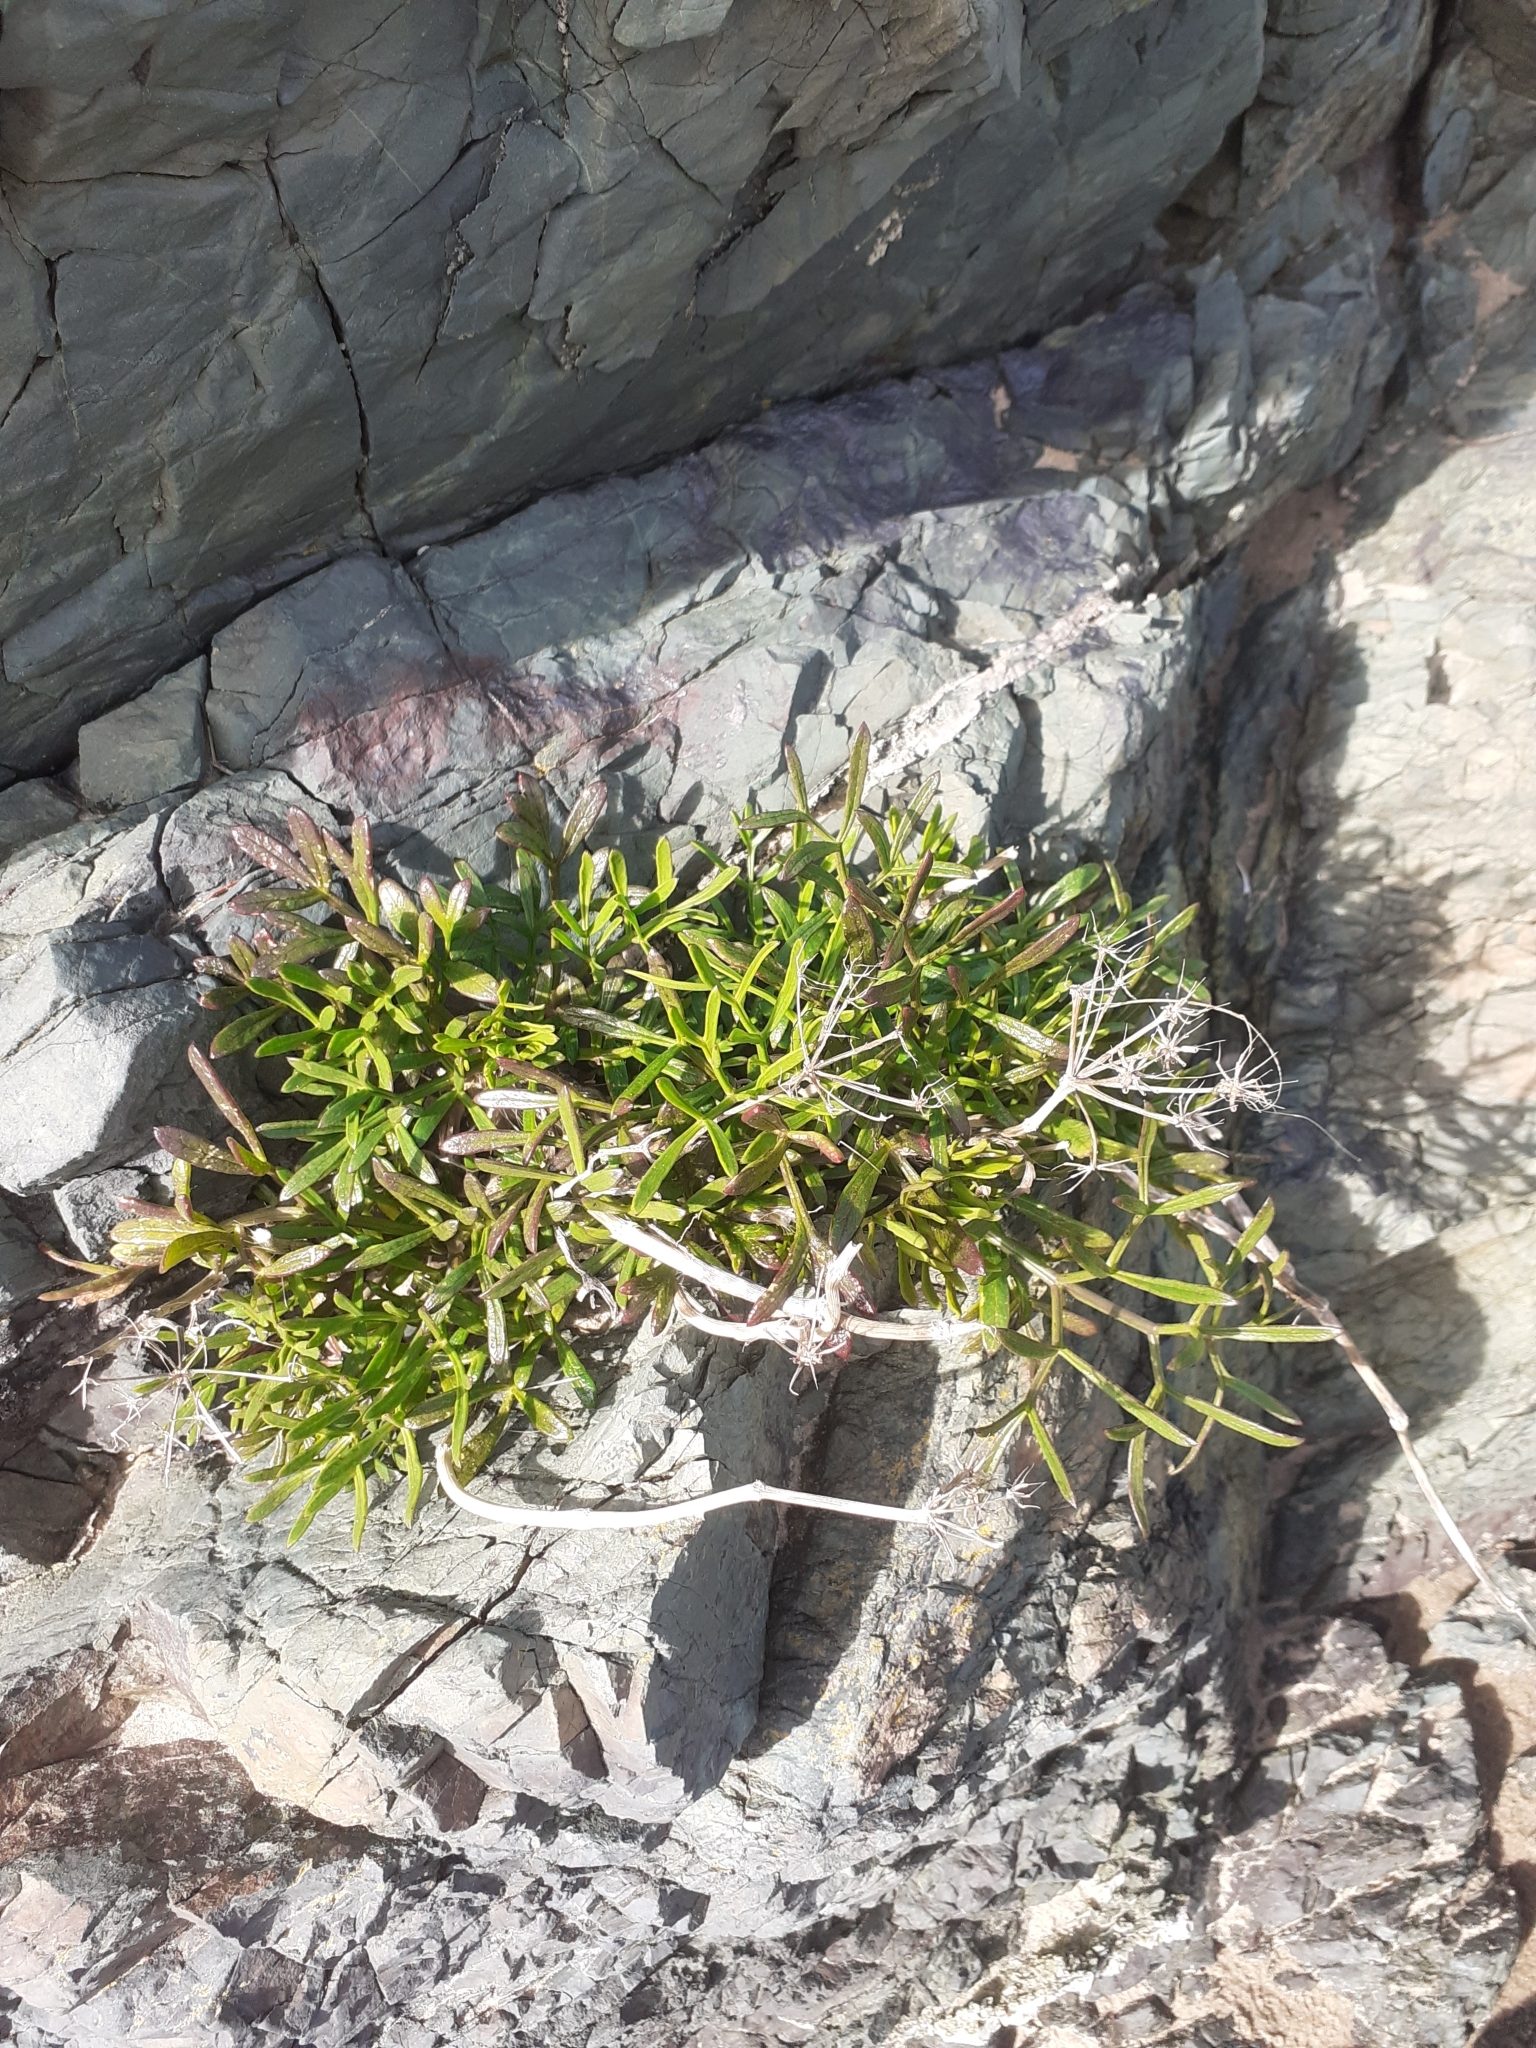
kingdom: Plantae
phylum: Tracheophyta
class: Magnoliopsida
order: Apiales
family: Apiaceae
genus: Crithmum
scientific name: Crithmum maritimum
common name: Rock samphire
